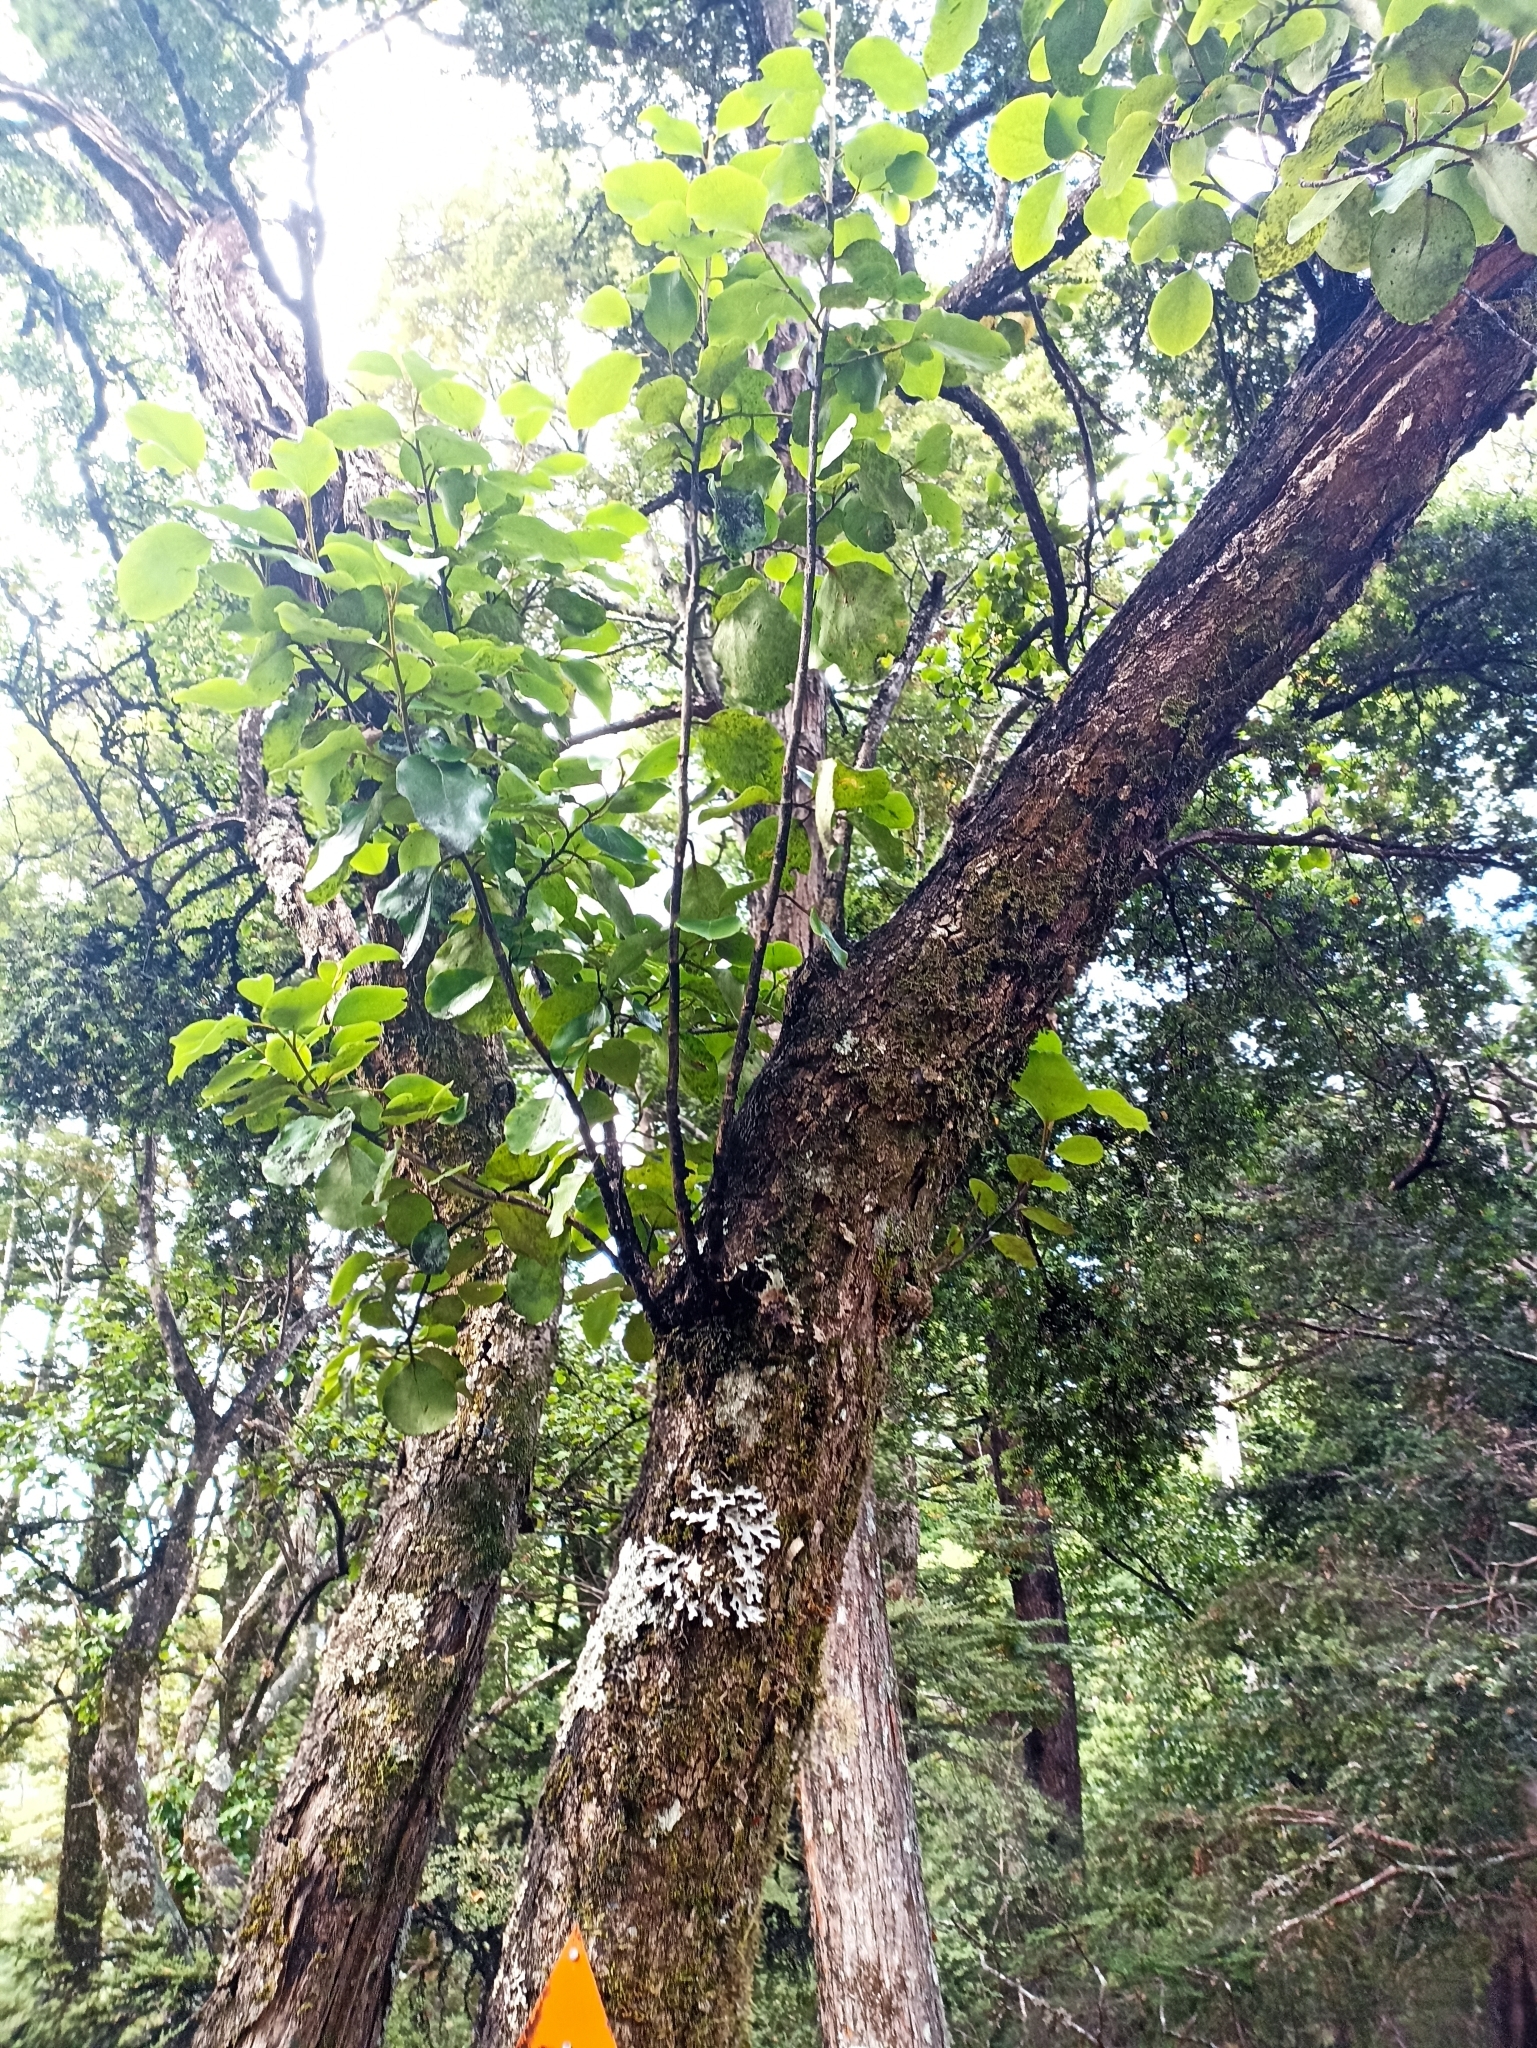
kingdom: Plantae
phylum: Tracheophyta
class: Magnoliopsida
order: Apiales
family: Griseliniaceae
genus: Griselinia
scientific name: Griselinia littoralis
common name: New zealand broadleaf
